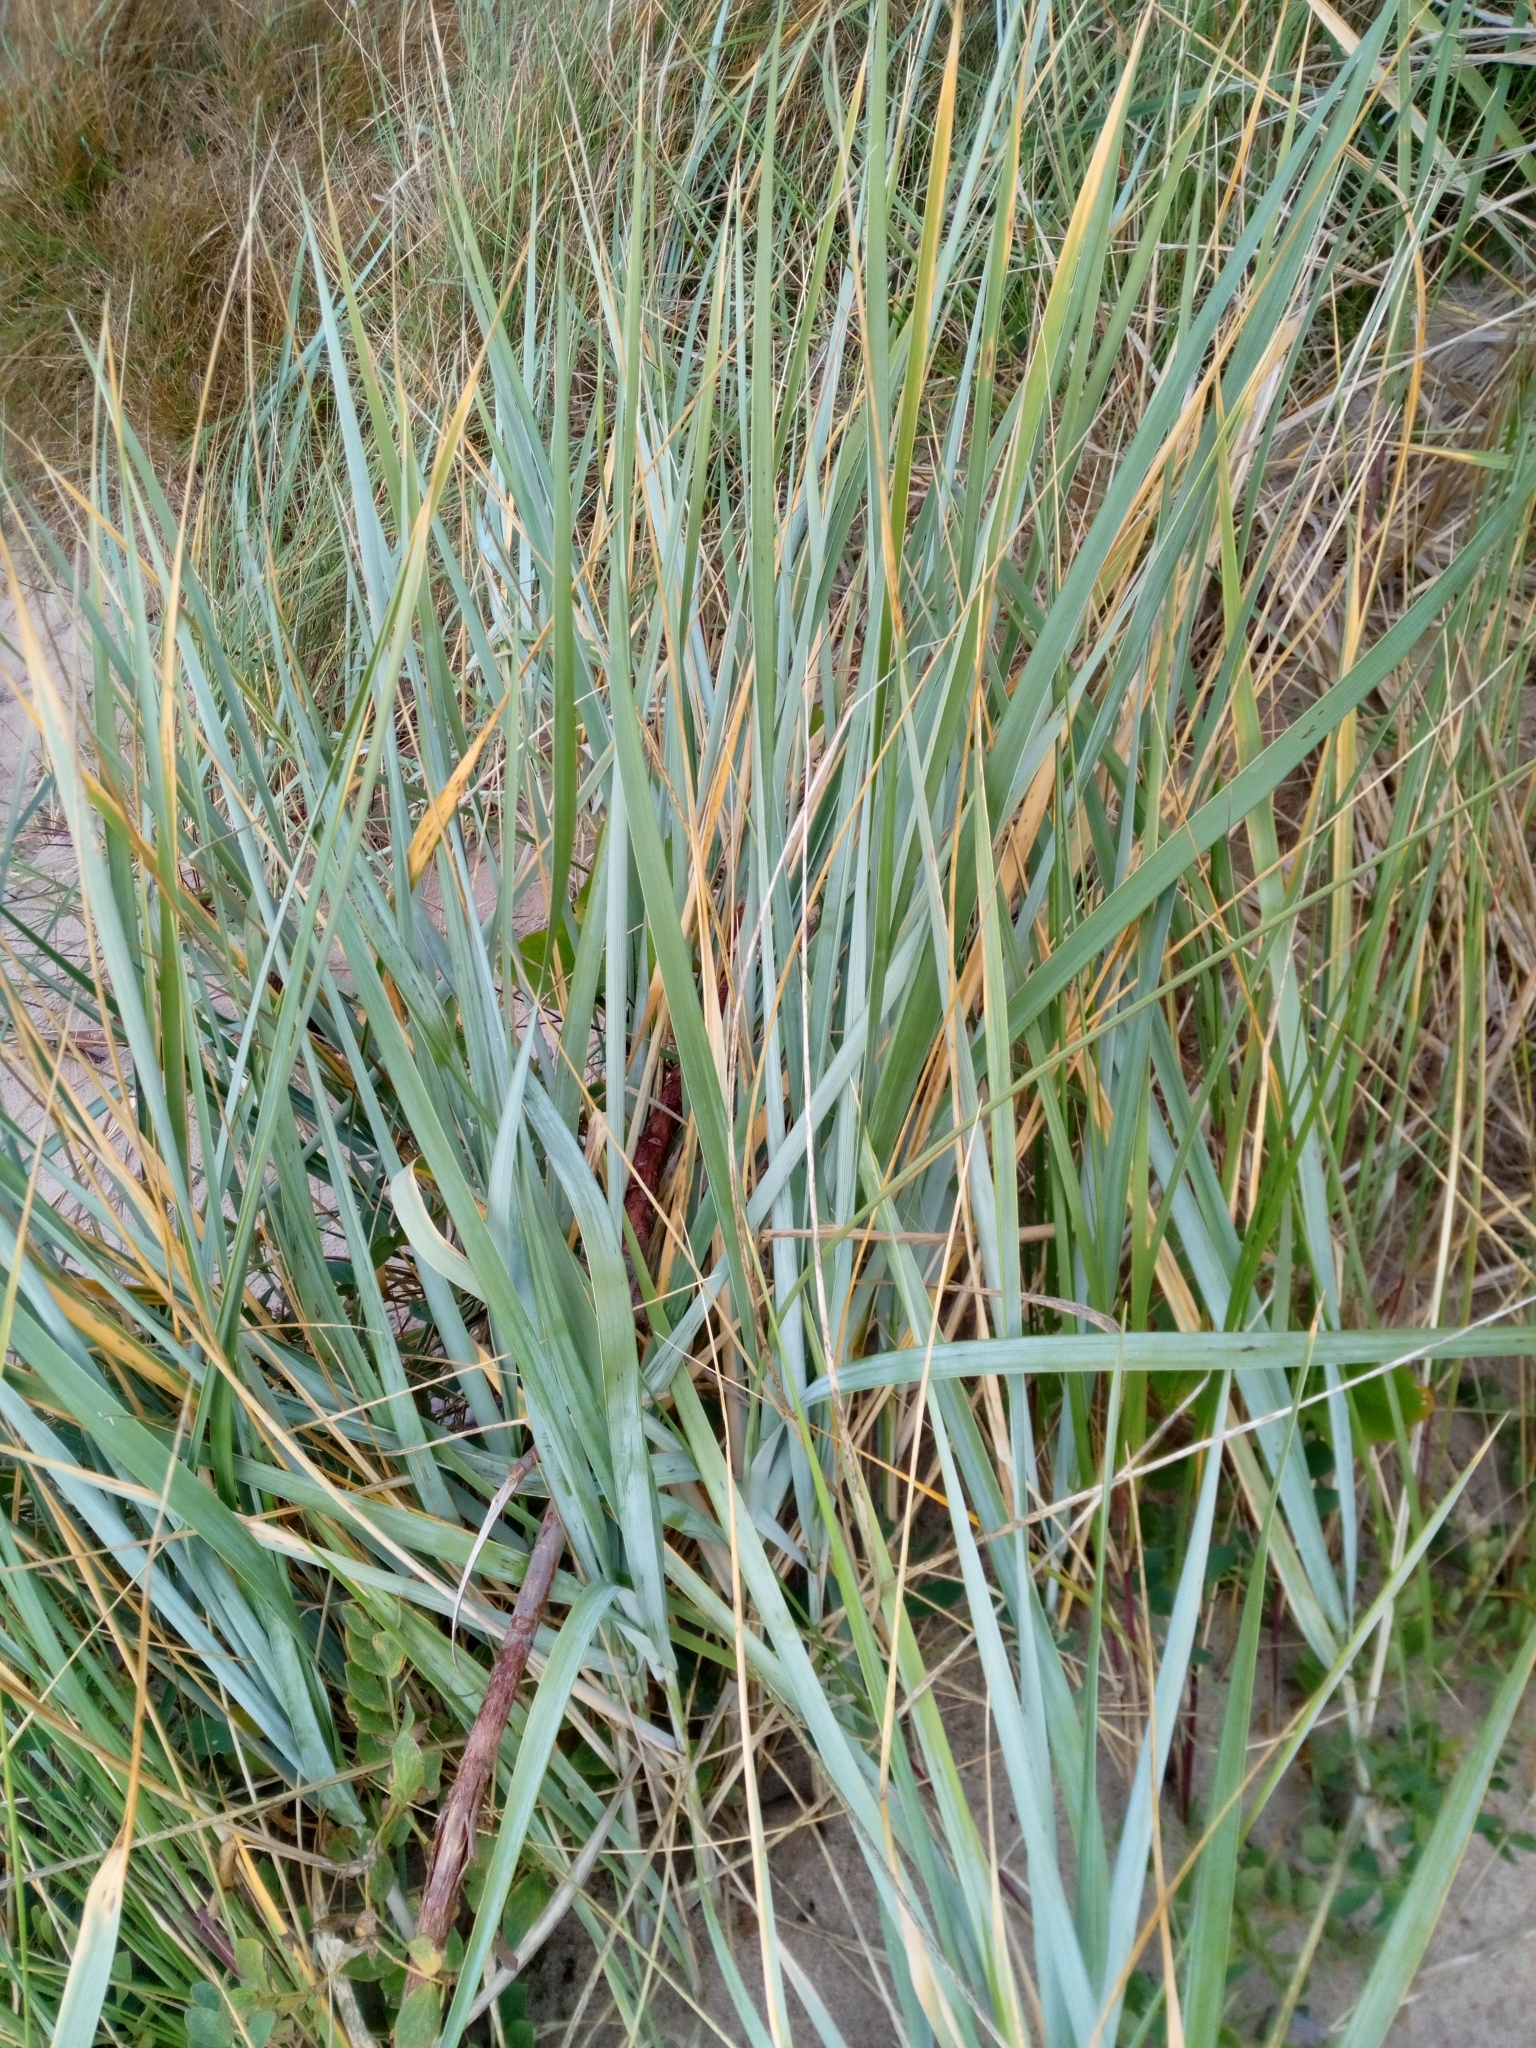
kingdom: Plantae
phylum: Tracheophyta
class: Liliopsida
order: Poales
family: Poaceae
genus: Leymus
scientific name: Leymus arenarius
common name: Lyme-grass
